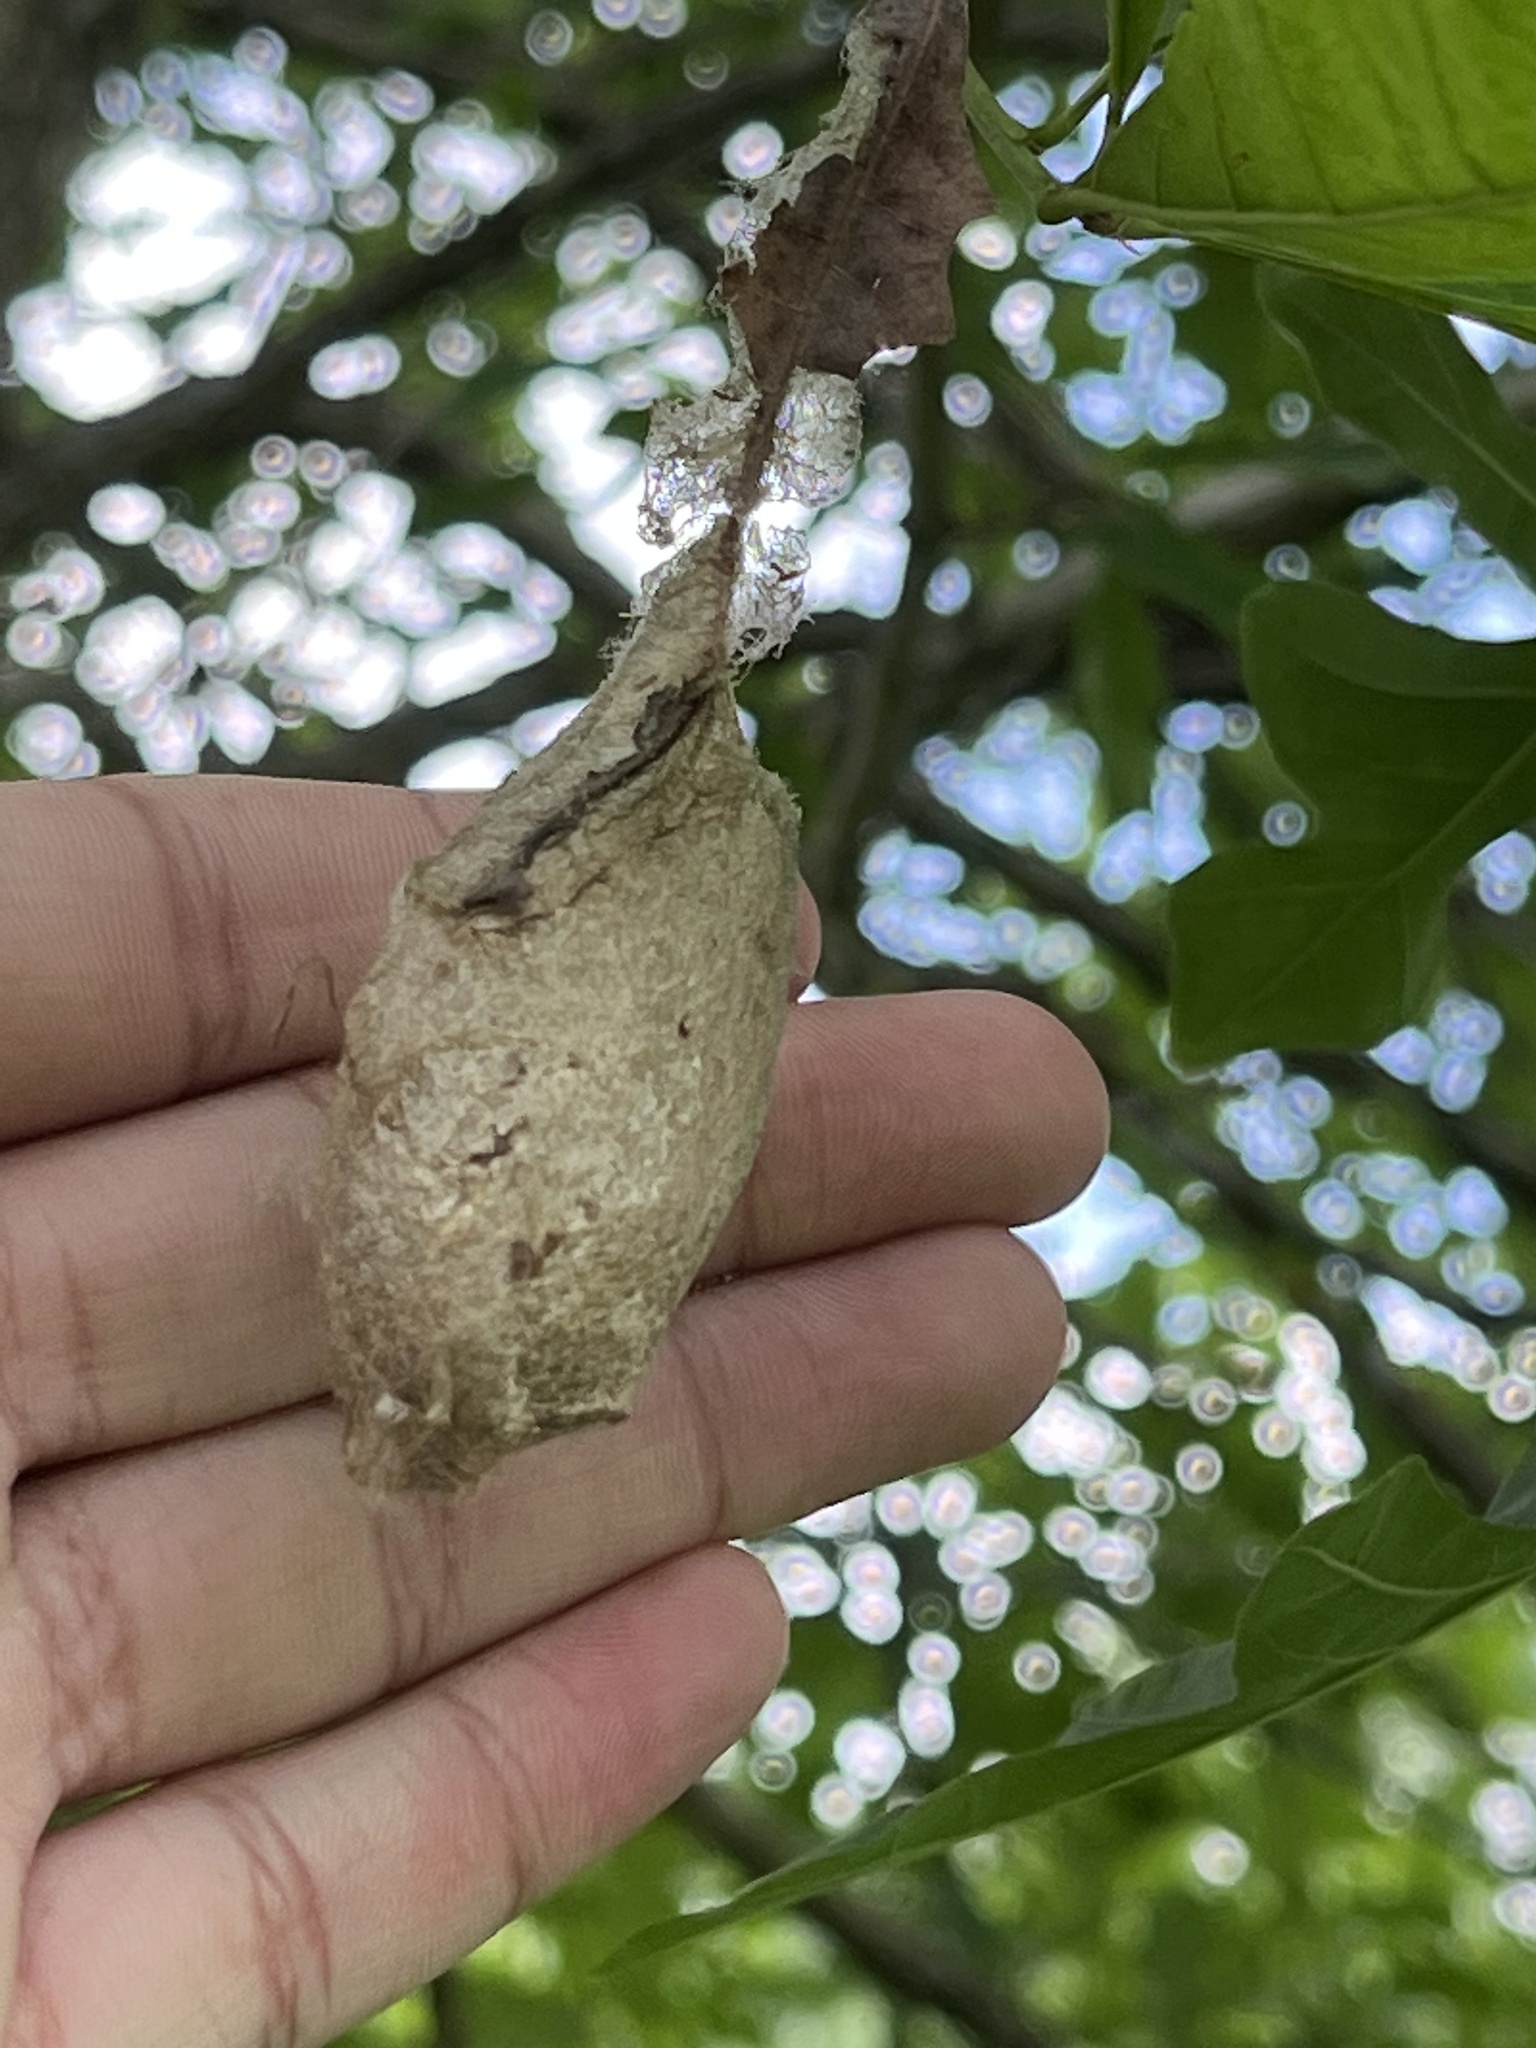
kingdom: Animalia
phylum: Arthropoda
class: Insecta
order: Lepidoptera
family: Saturniidae
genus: Antheraea
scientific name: Antheraea polyphemus
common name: Polyphemus moth
